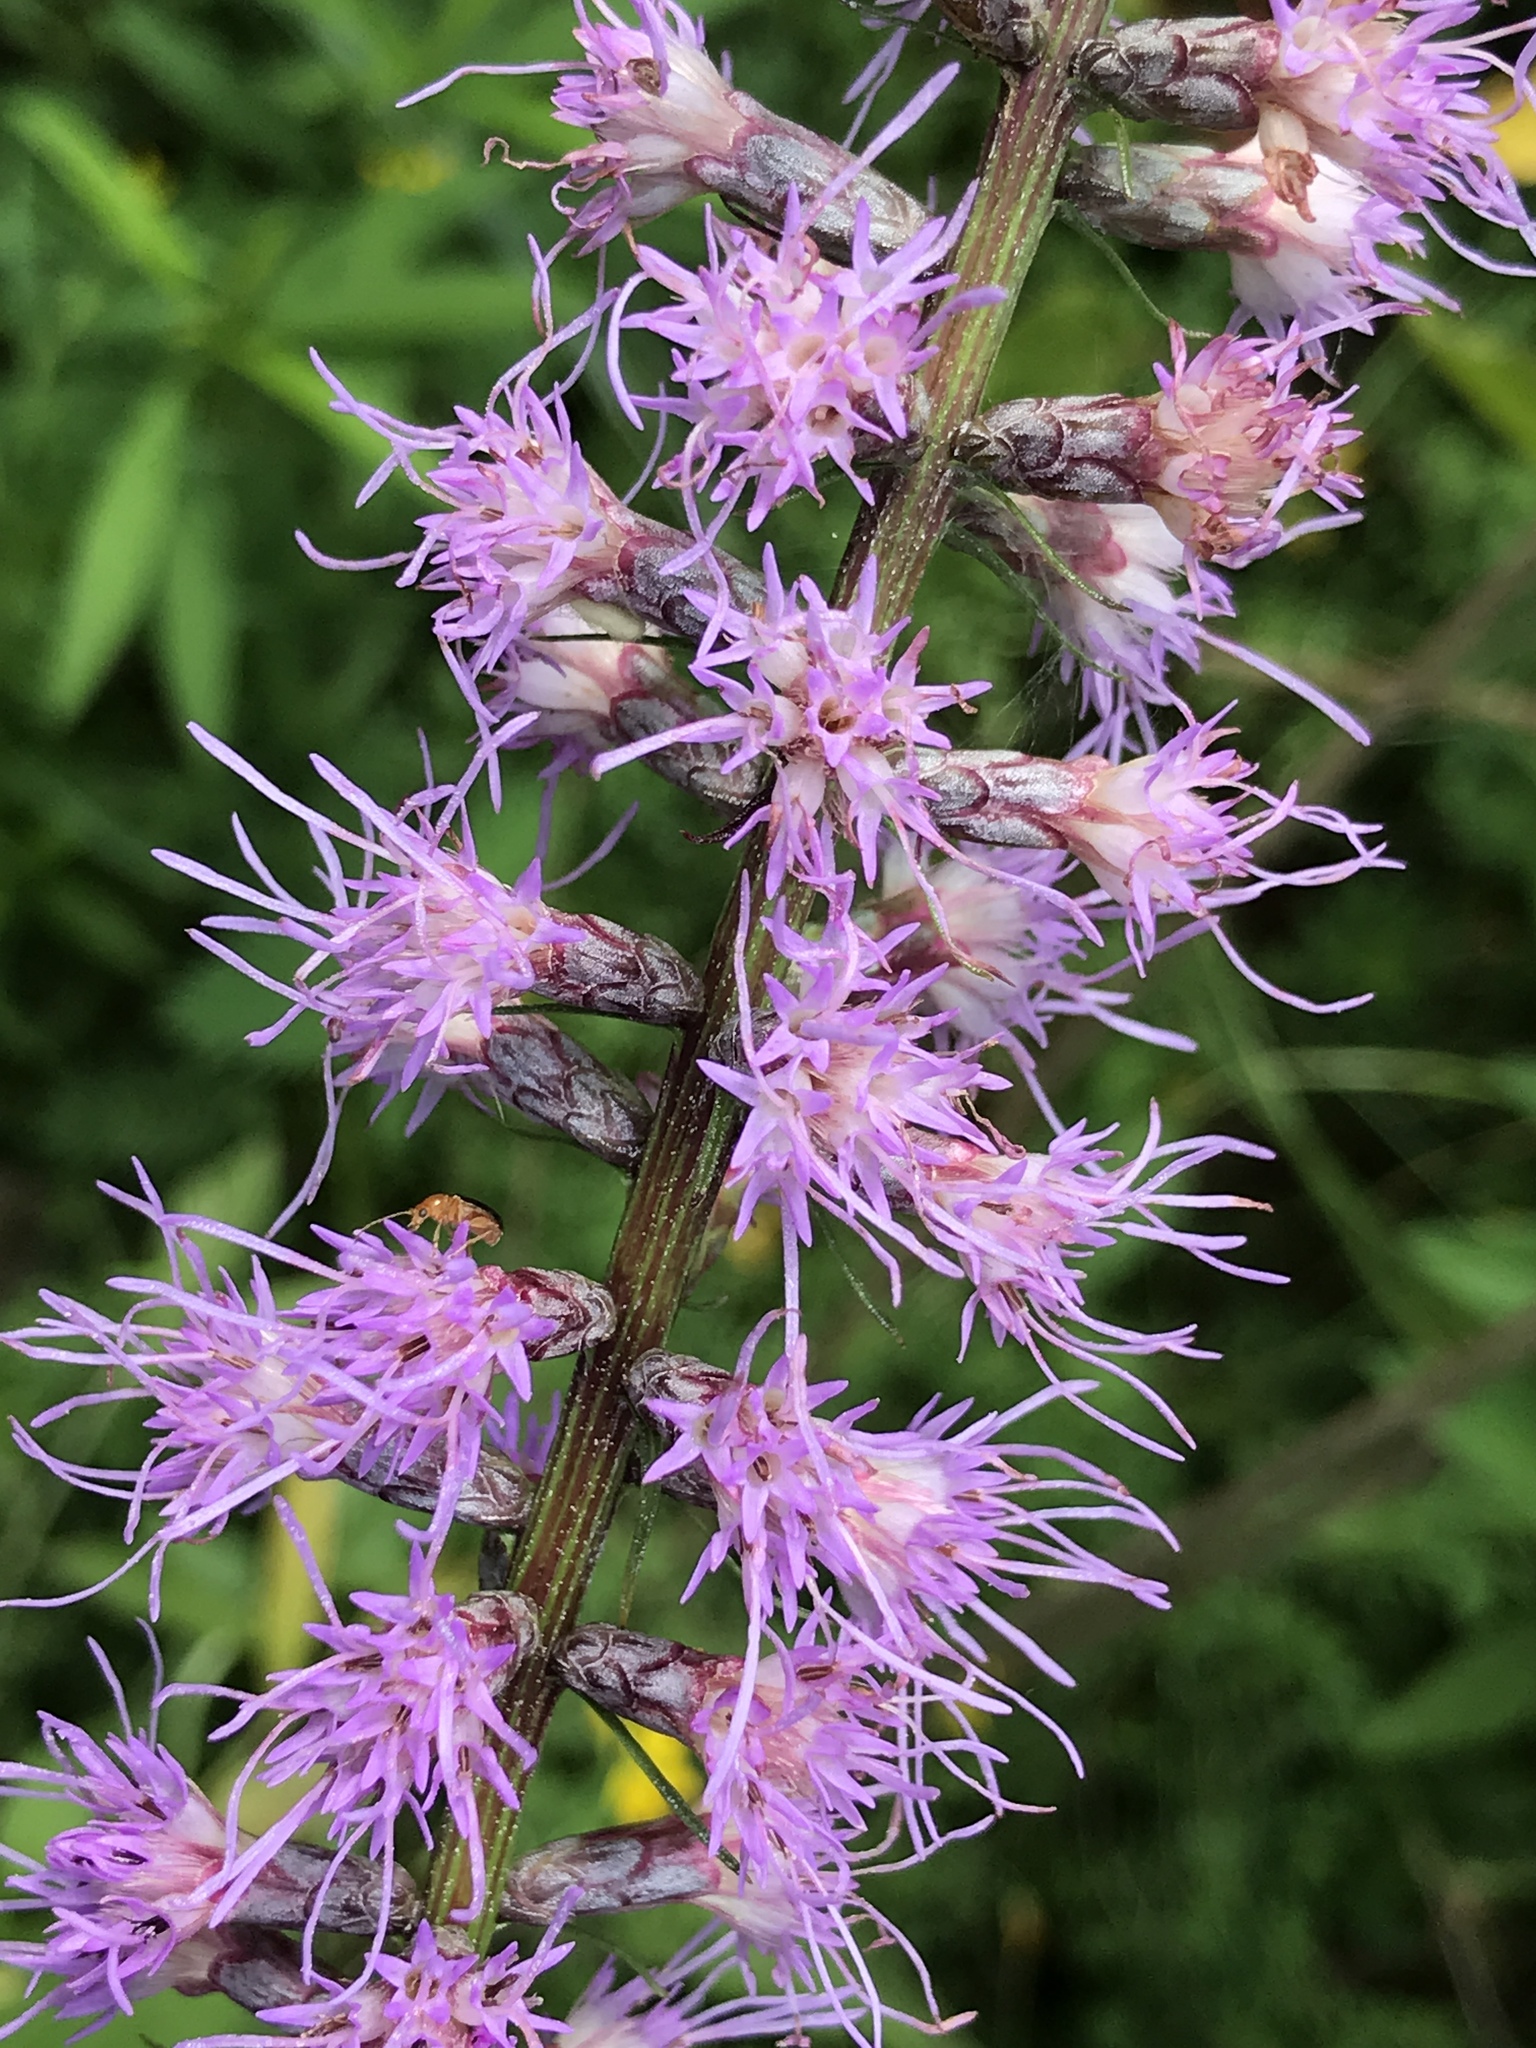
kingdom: Plantae
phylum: Tracheophyta
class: Magnoliopsida
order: Asterales
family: Asteraceae
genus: Liatris
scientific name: Liatris spicata
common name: Florist gayfeather
